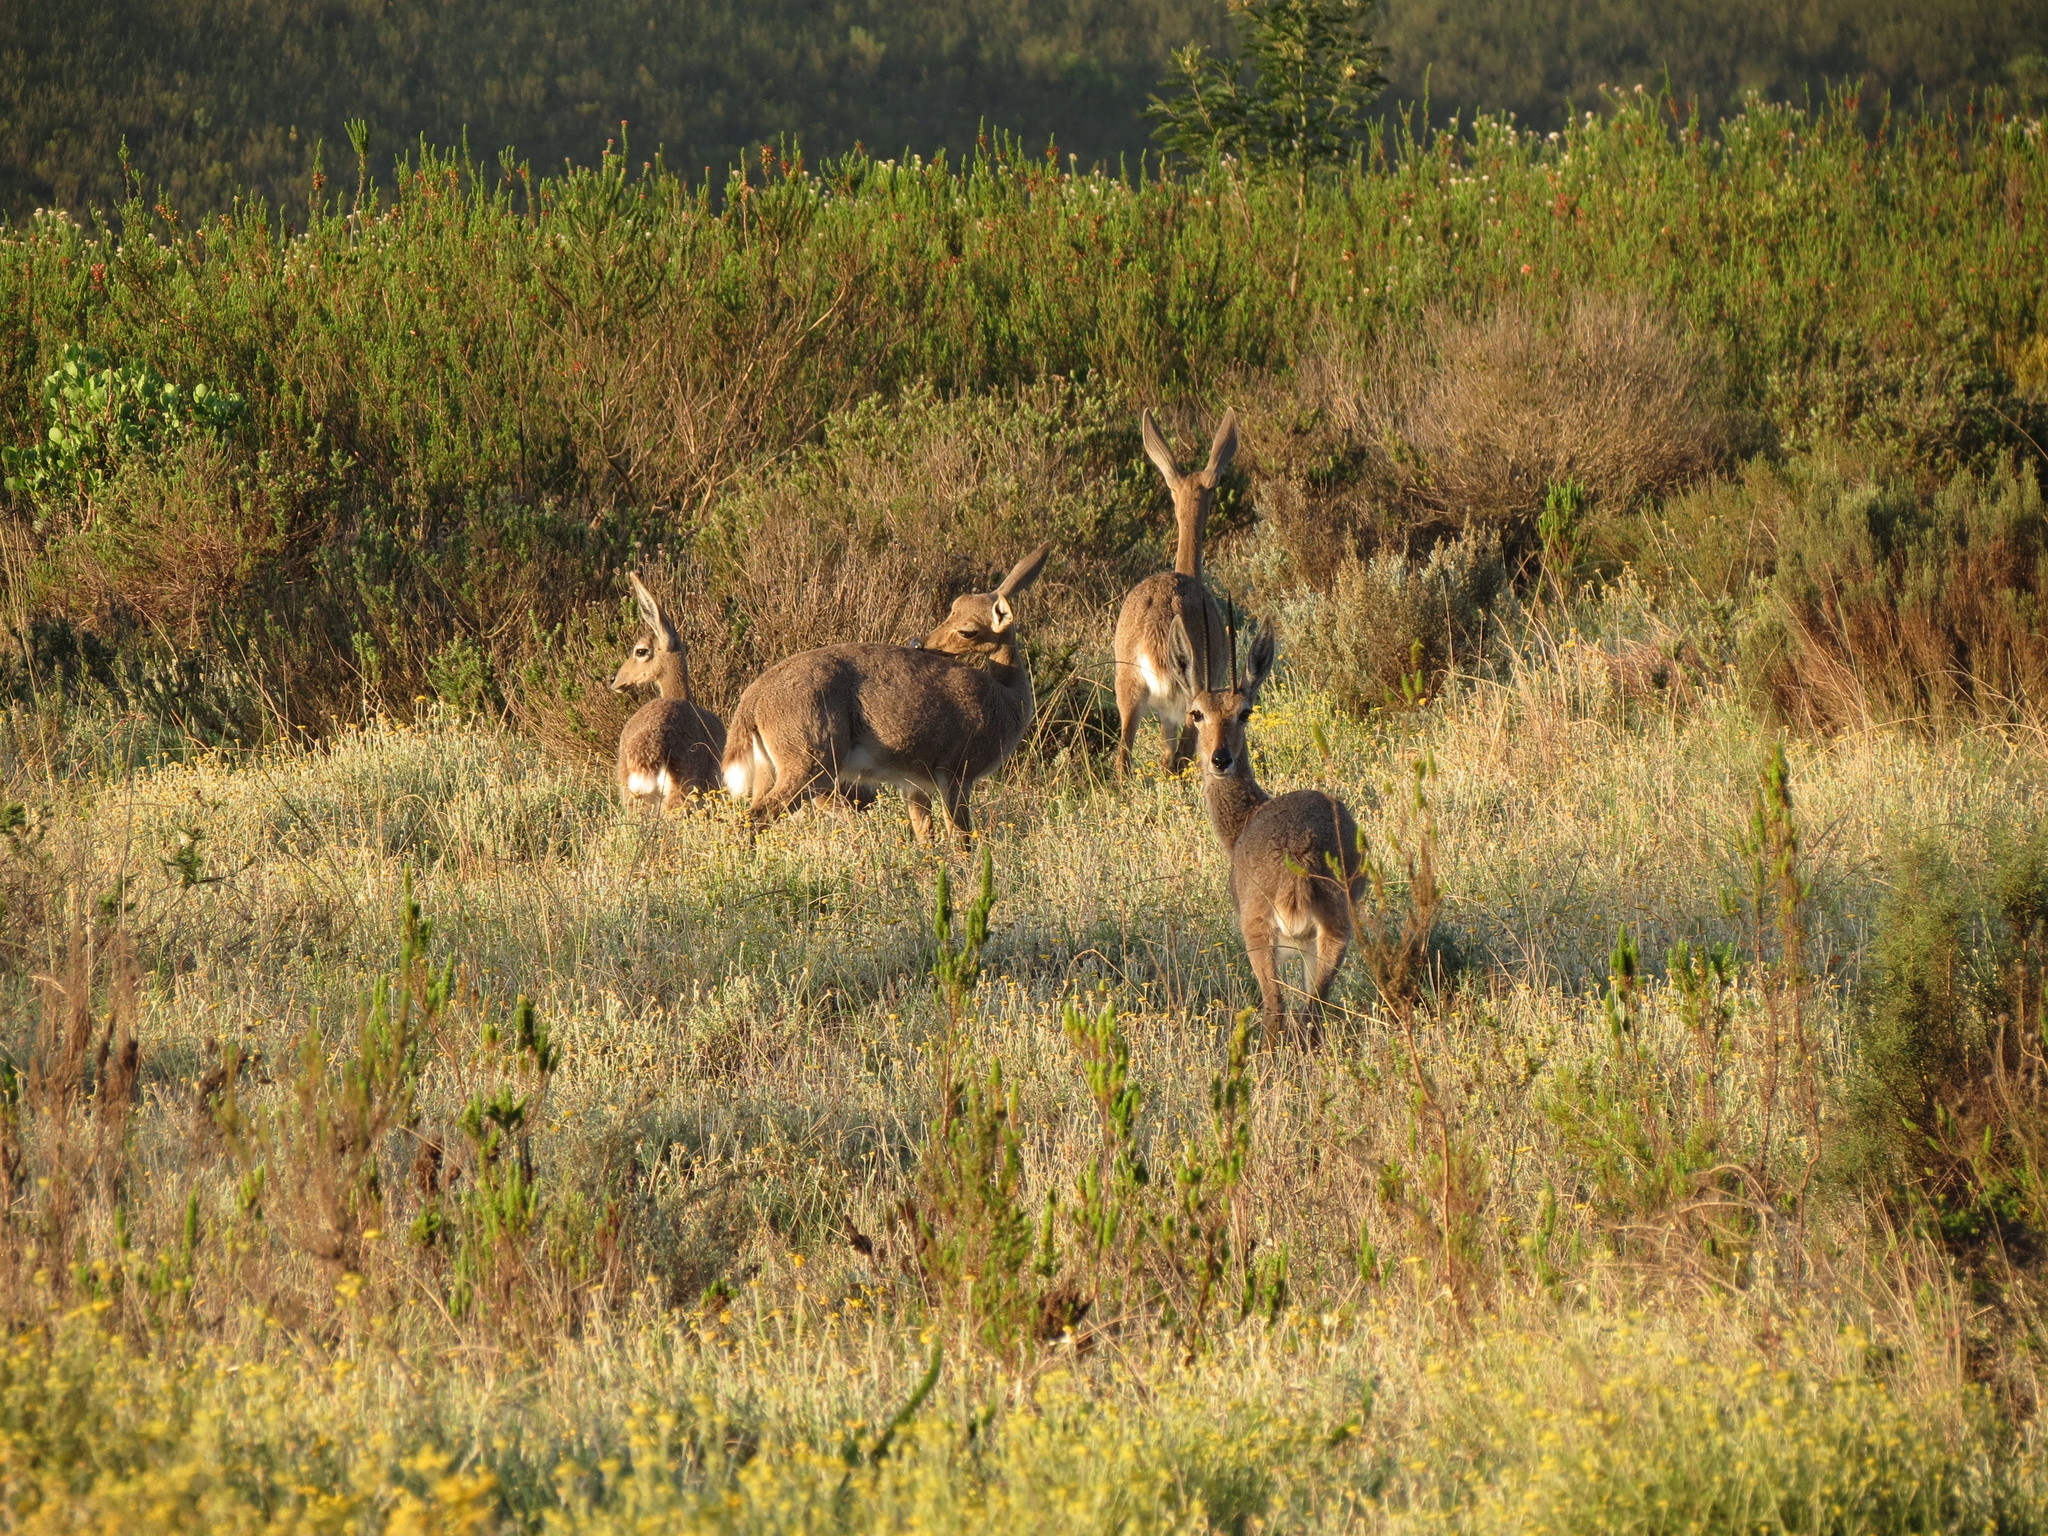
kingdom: Animalia
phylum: Chordata
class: Mammalia
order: Artiodactyla
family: Bovidae
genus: Pelea
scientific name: Pelea capreolus
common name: Common rhebok
